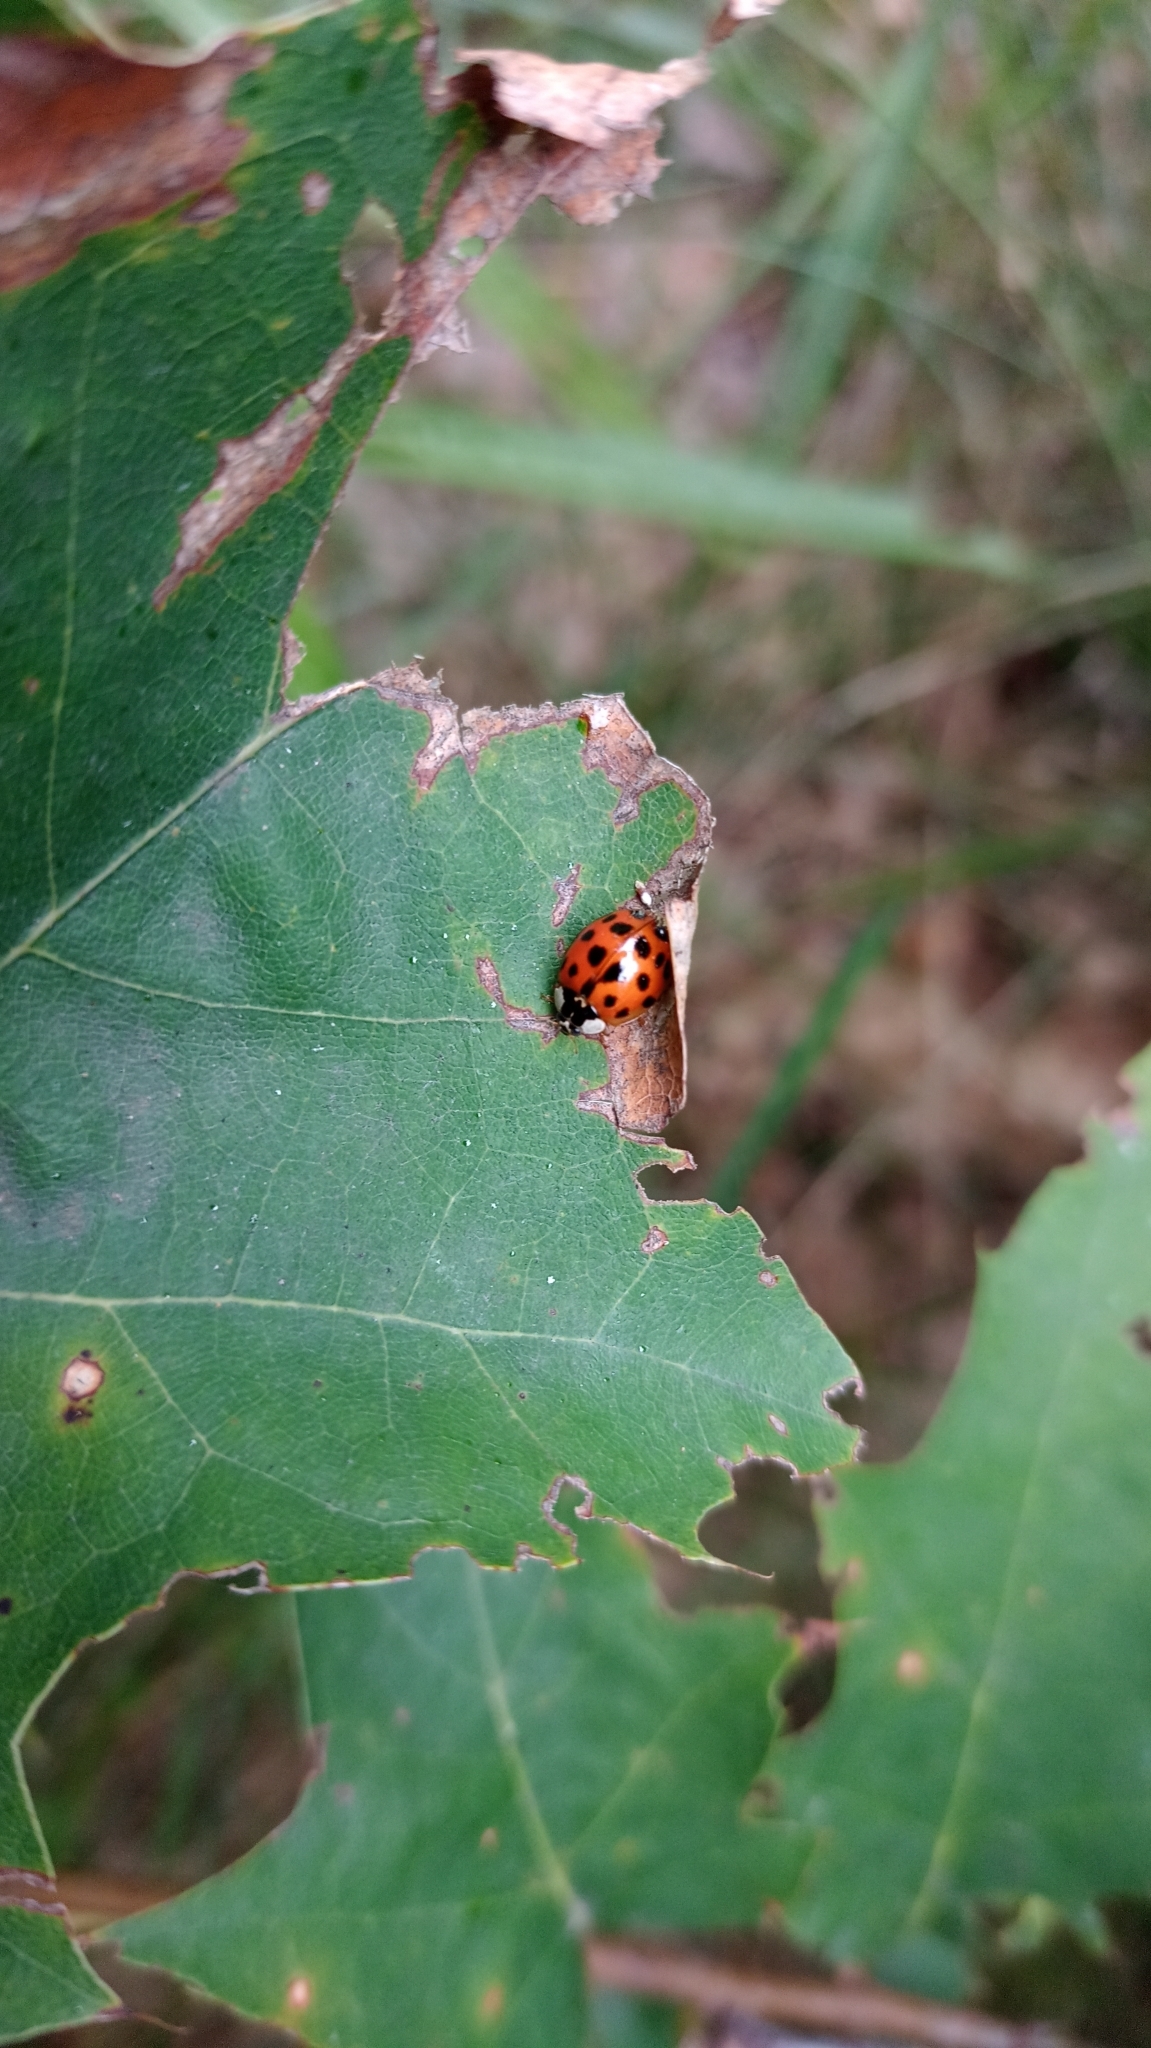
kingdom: Animalia
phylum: Arthropoda
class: Insecta
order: Coleoptera
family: Coccinellidae
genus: Harmonia
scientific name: Harmonia axyridis
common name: Harlequin ladybird
